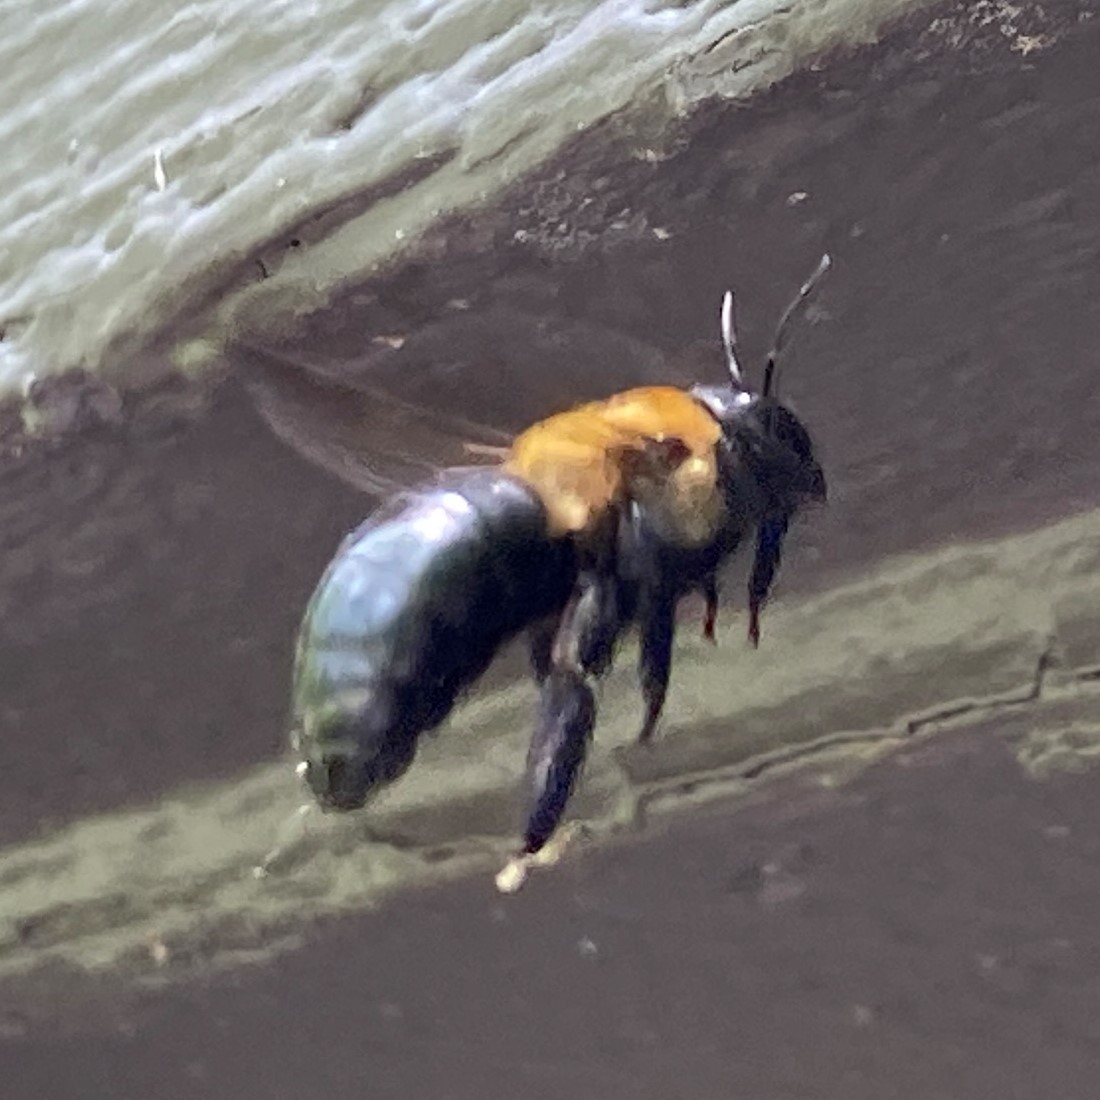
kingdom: Animalia
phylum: Arthropoda
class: Insecta
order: Hymenoptera
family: Apidae
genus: Xylocopa
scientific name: Xylocopa virginica
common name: Carpenter bee
